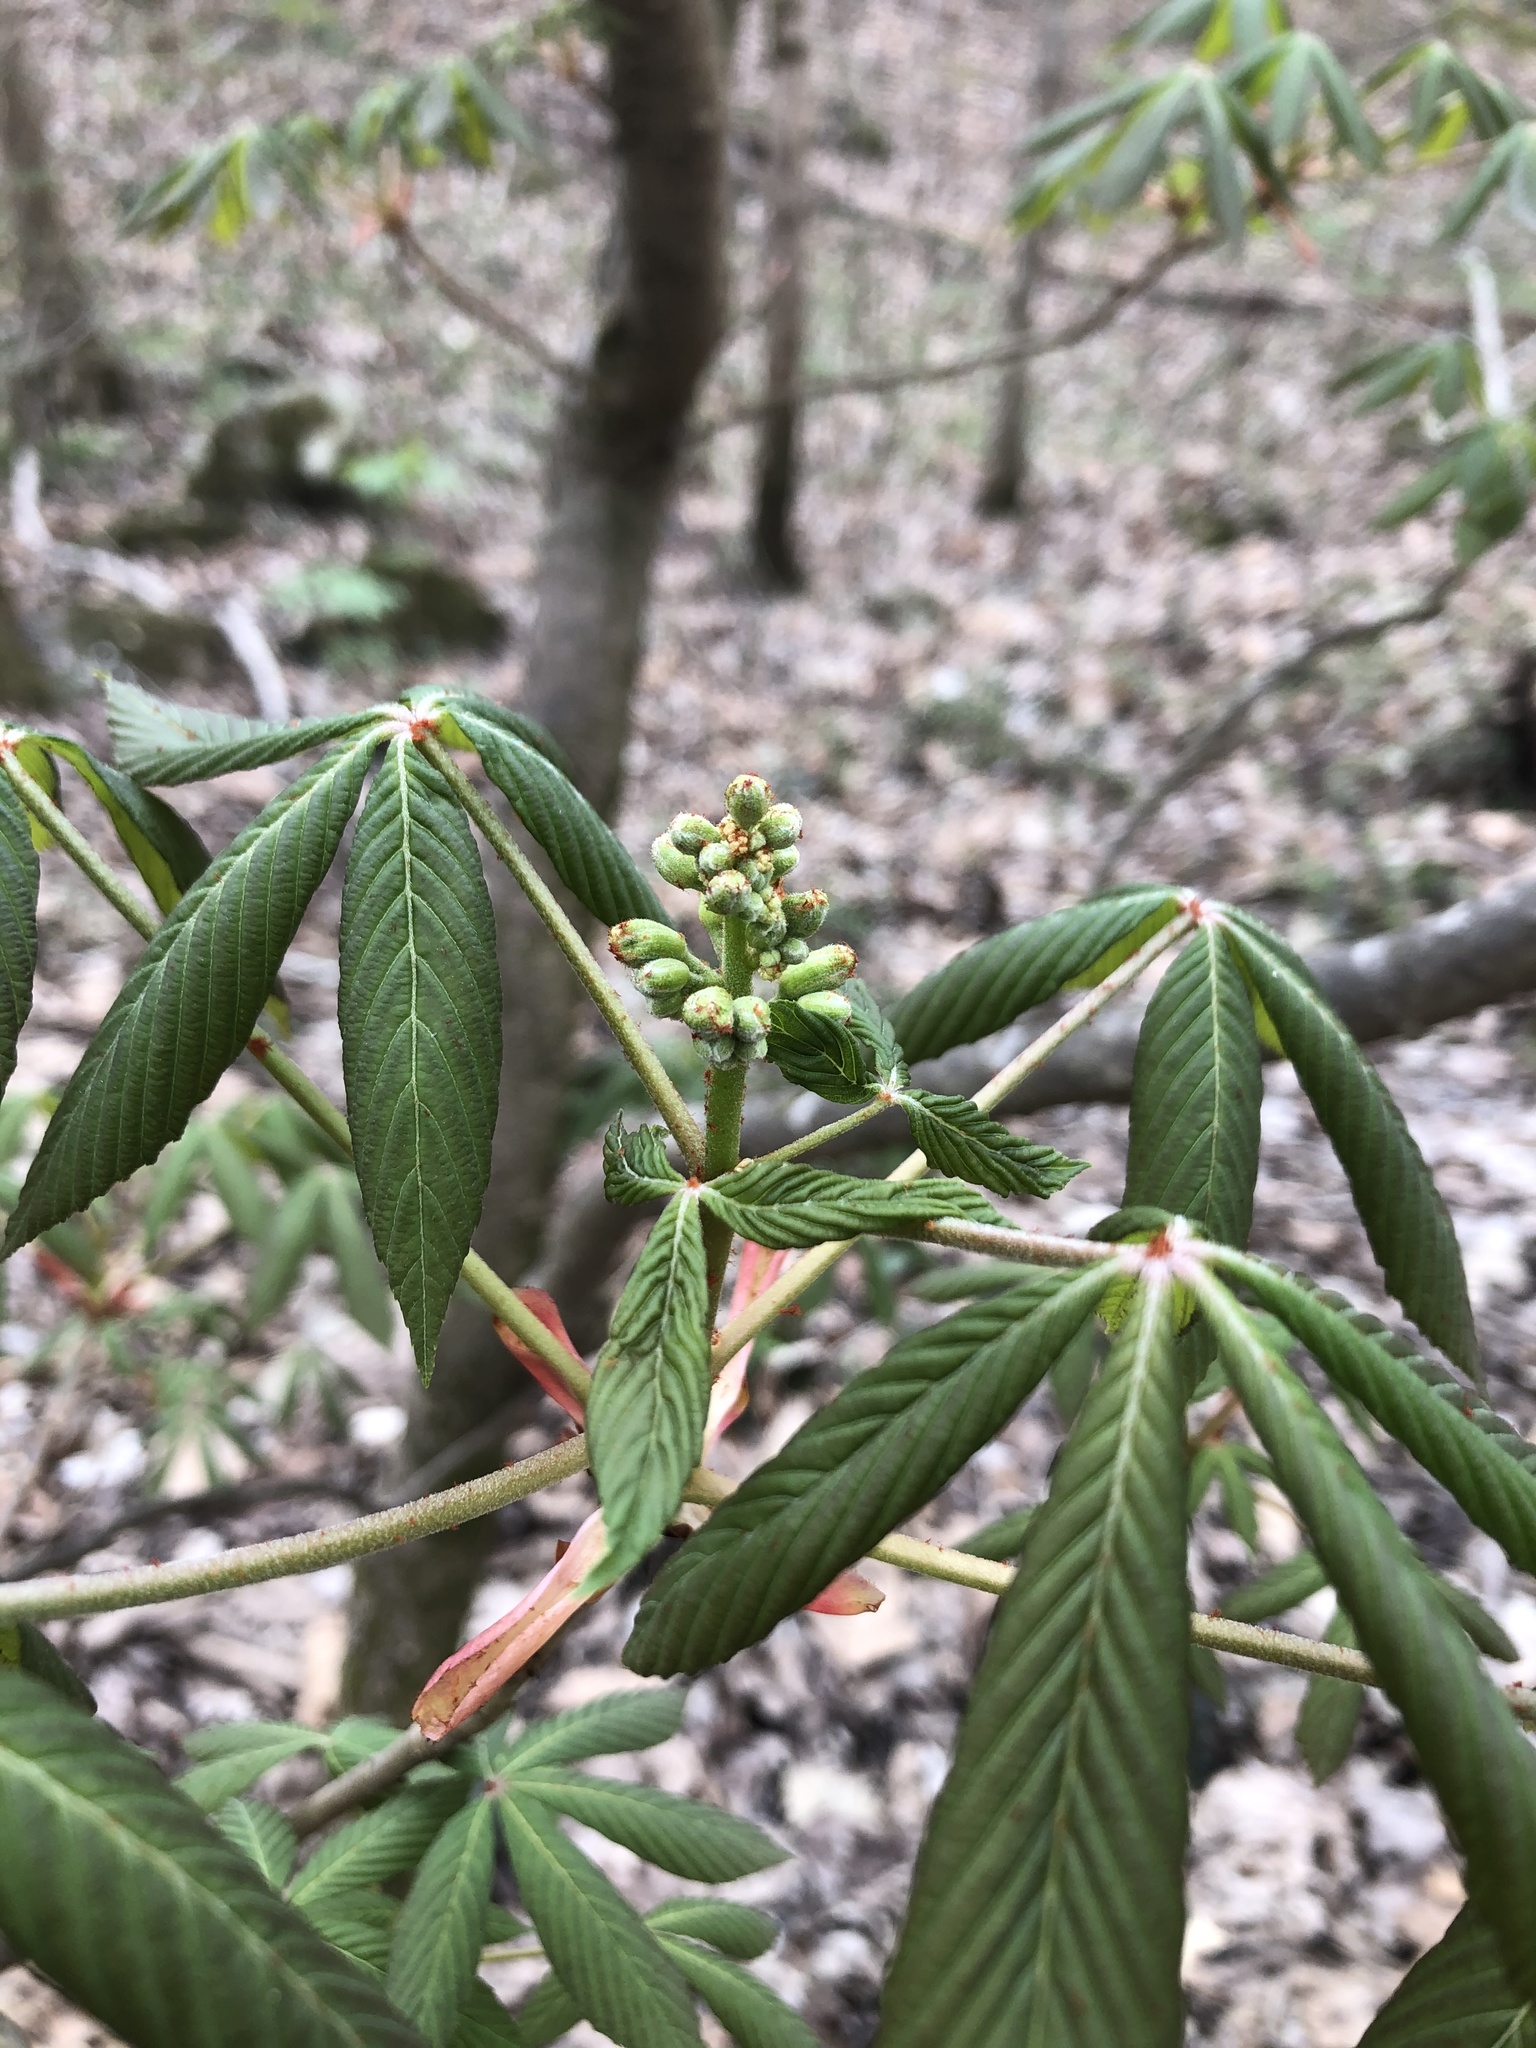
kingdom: Plantae
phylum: Tracheophyta
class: Magnoliopsida
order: Sapindales
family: Sapindaceae
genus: Aesculus
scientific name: Aesculus sylvatica
